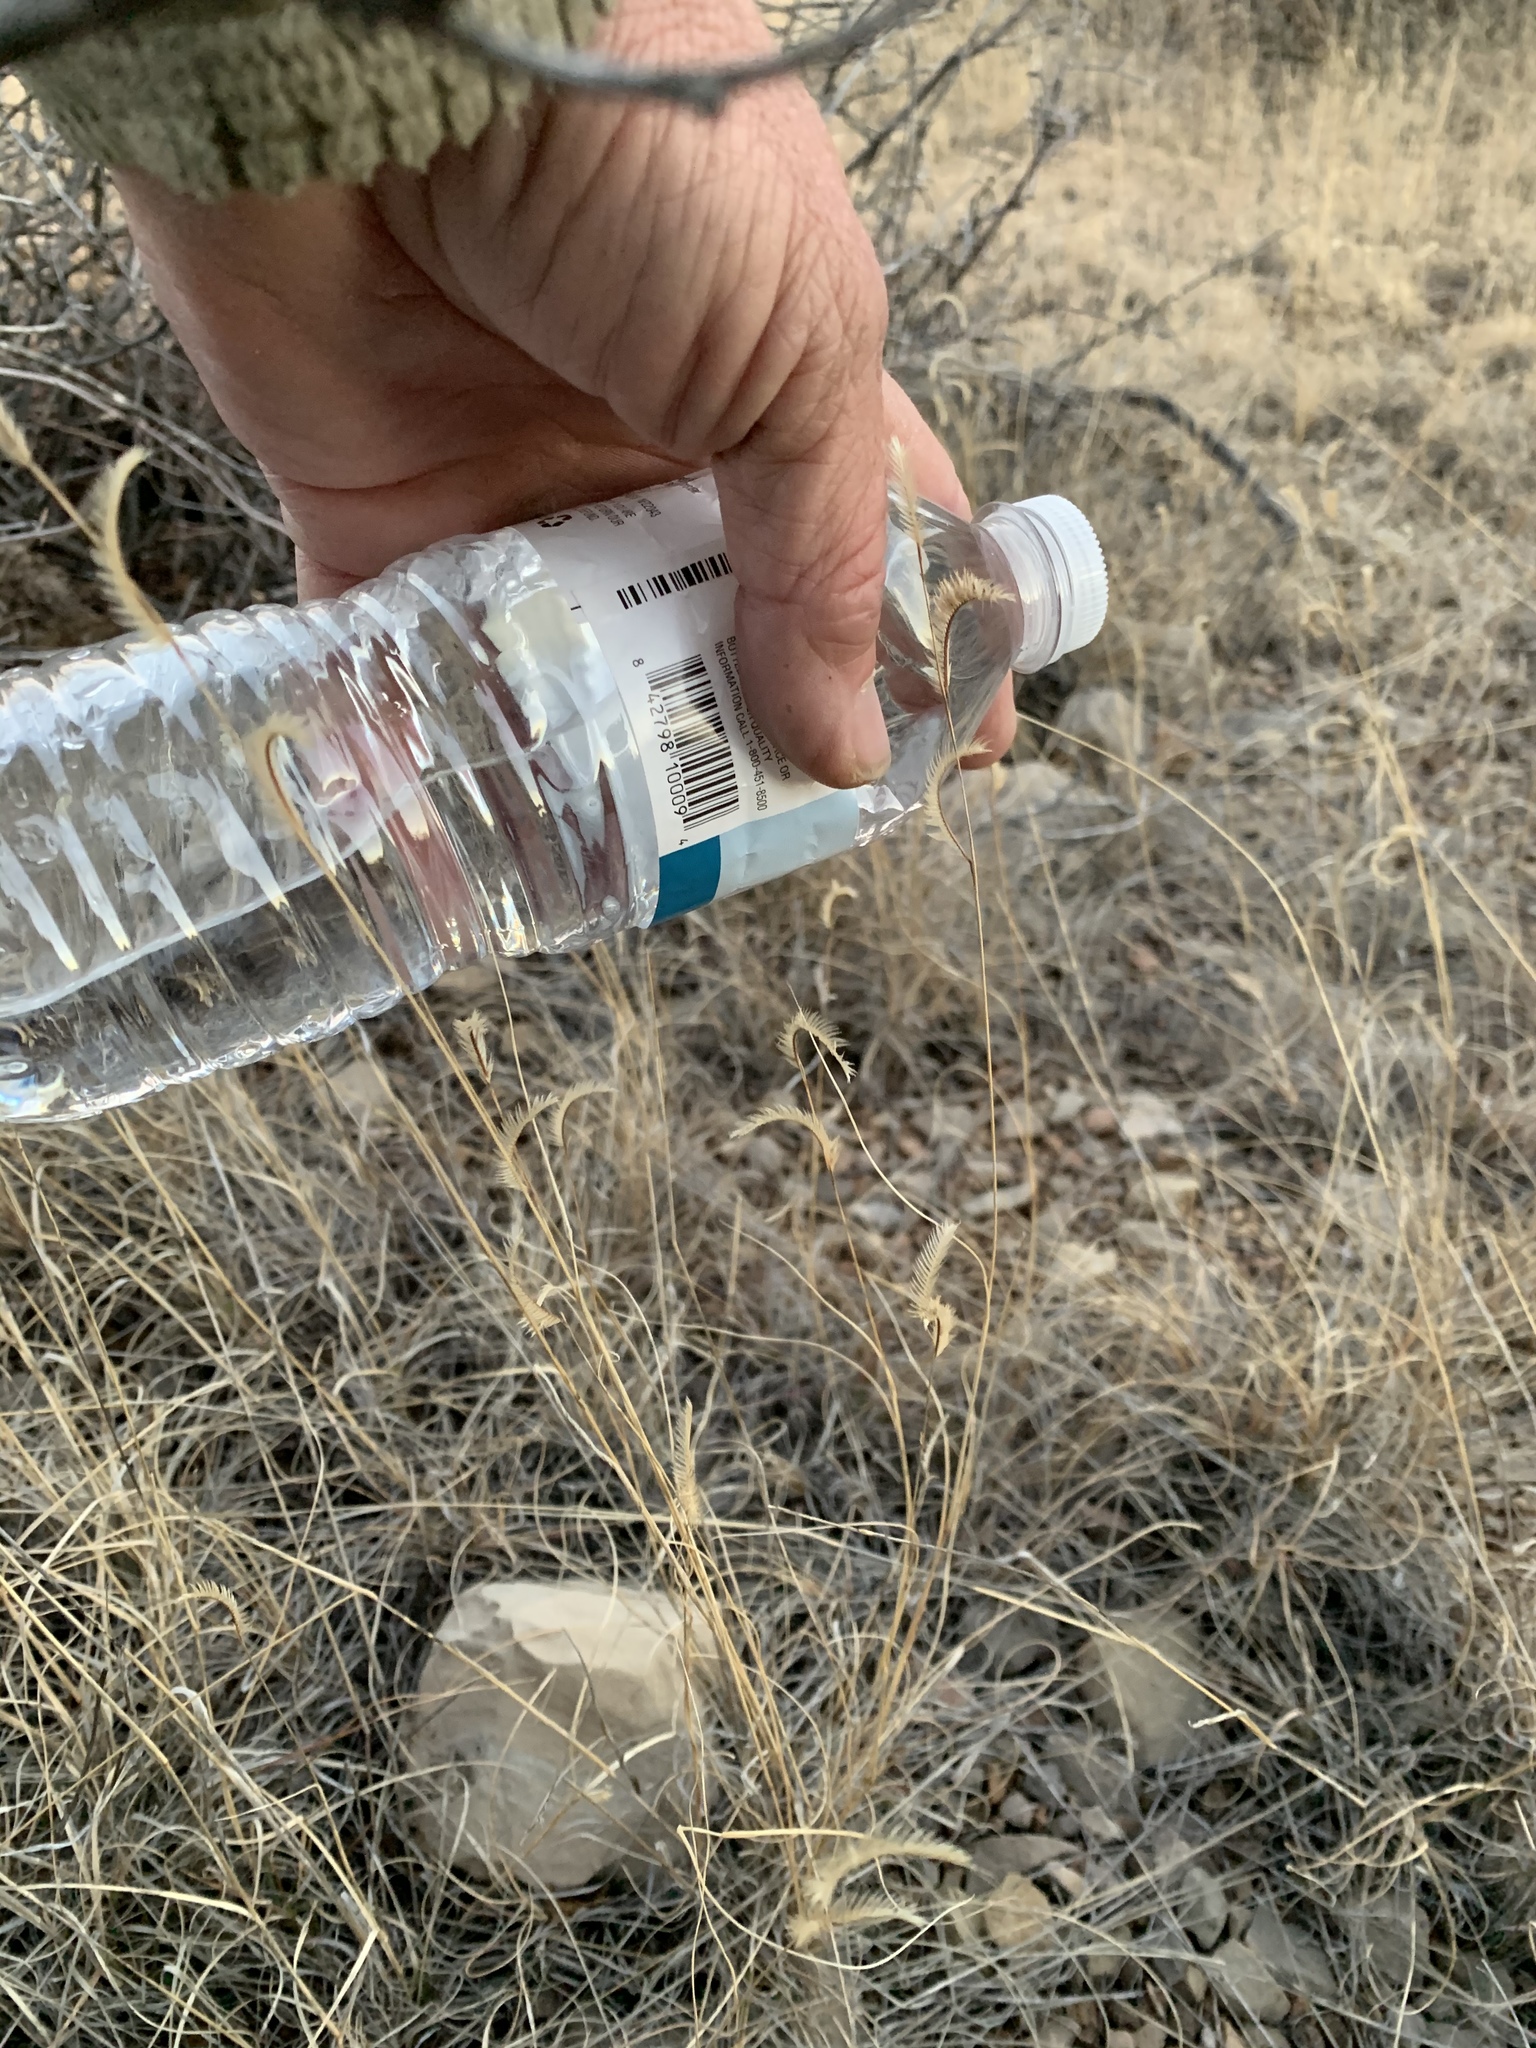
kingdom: Plantae
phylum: Tracheophyta
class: Liliopsida
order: Poales
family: Poaceae
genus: Bouteloua
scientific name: Bouteloua gracilis
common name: Blue grama
